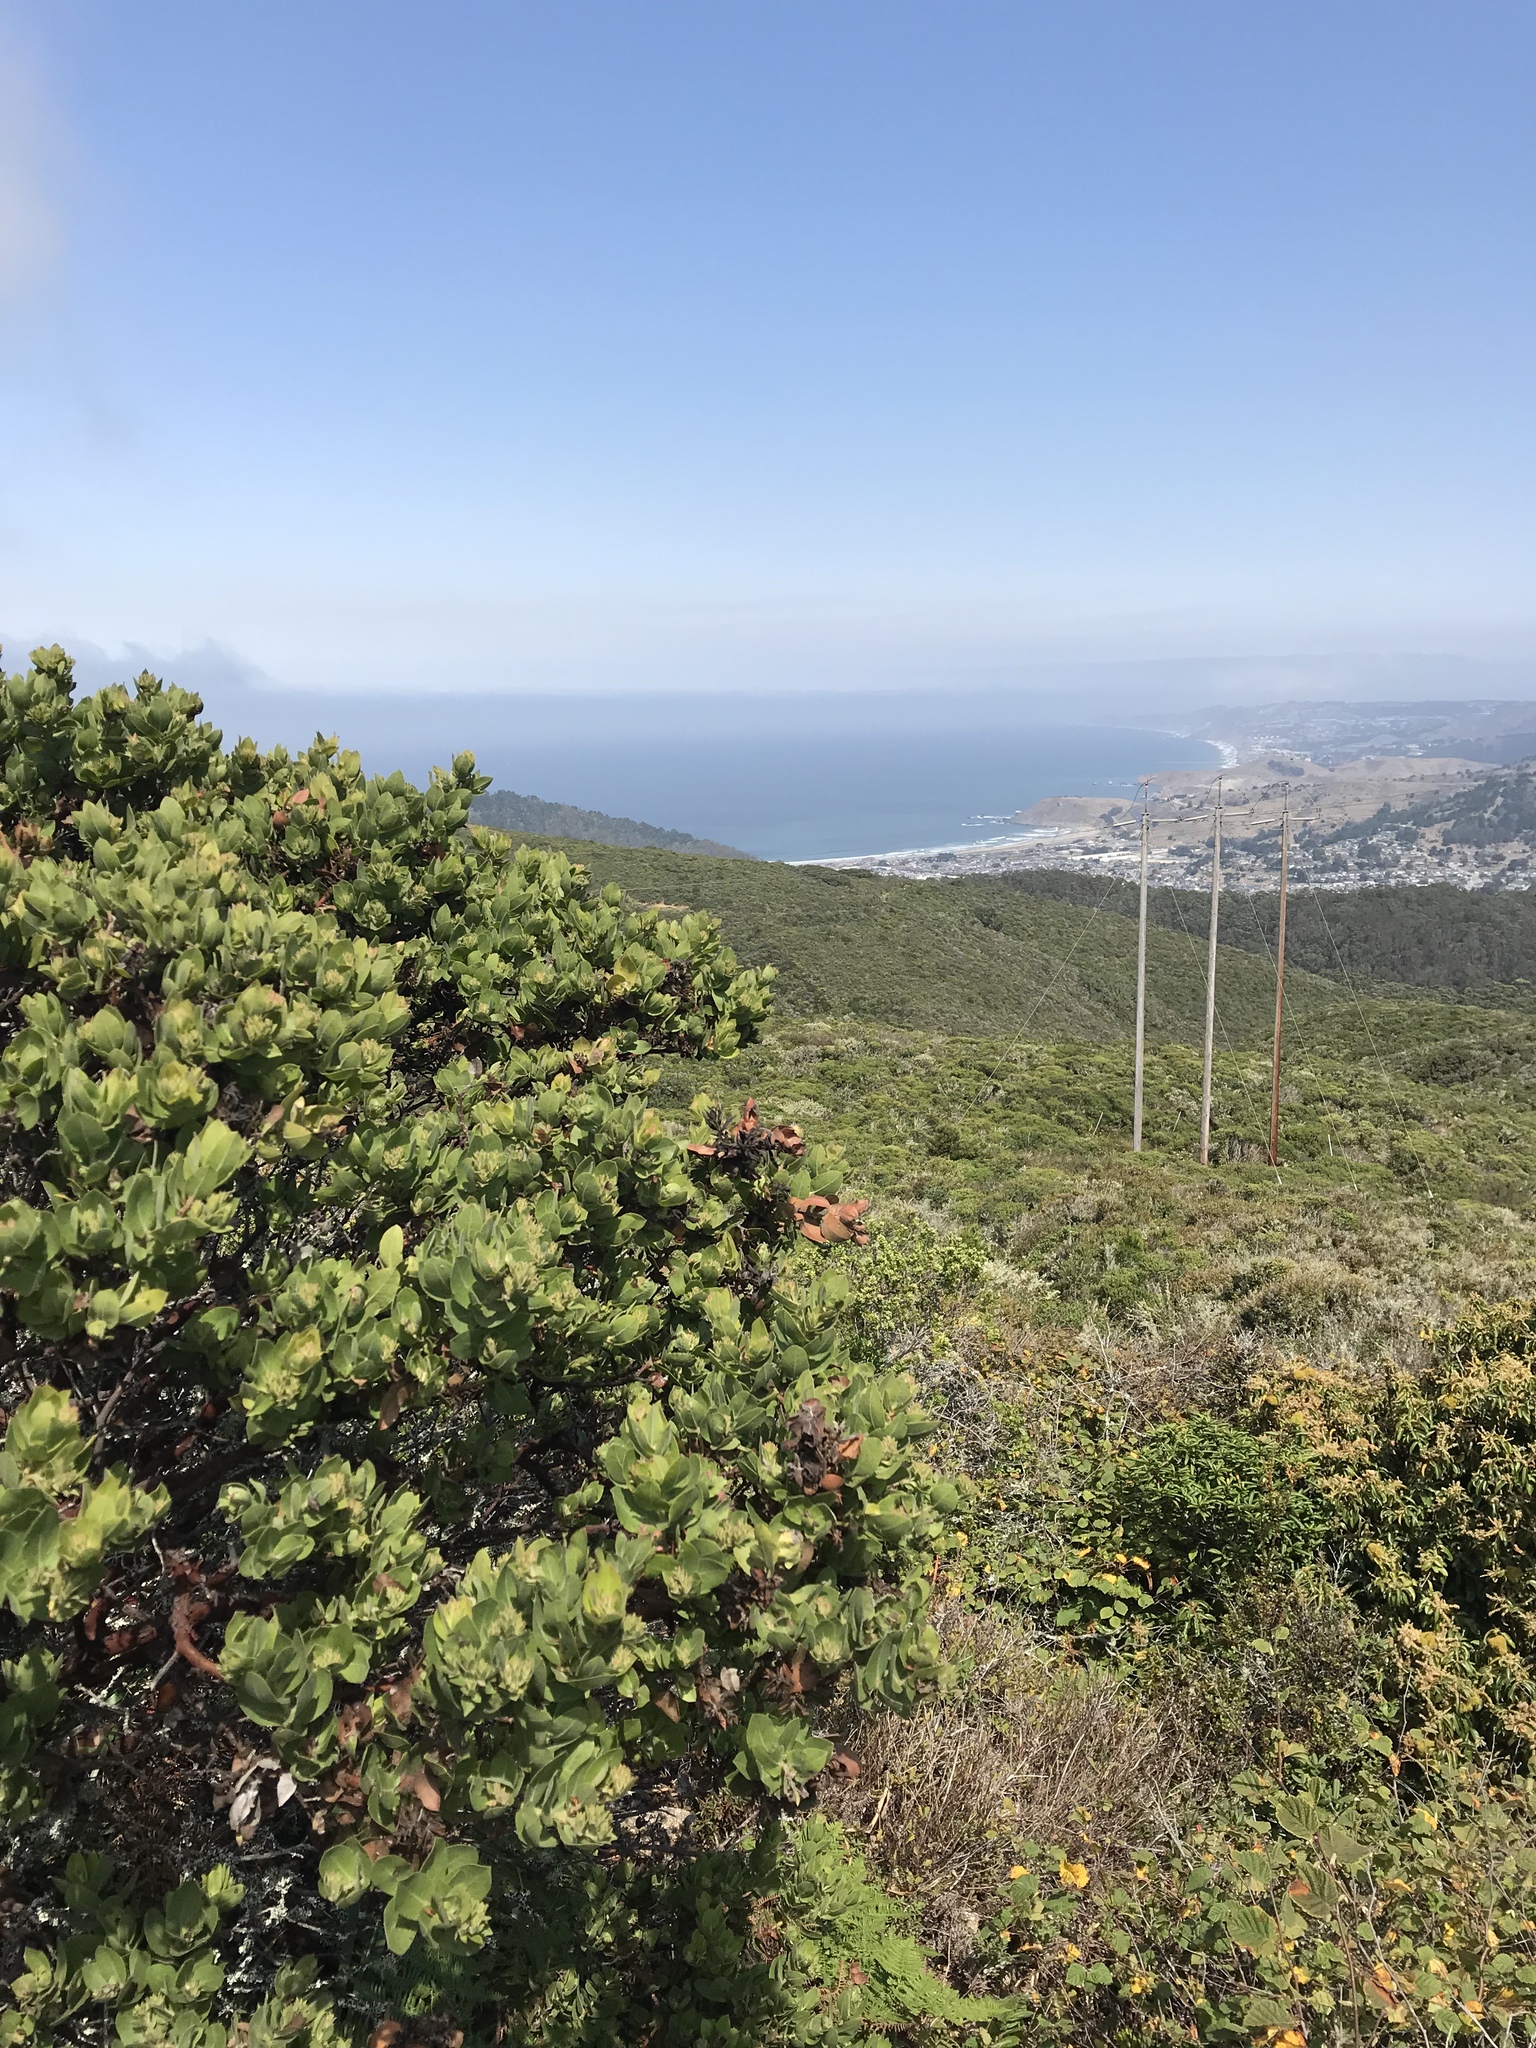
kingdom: Plantae
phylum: Tracheophyta
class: Magnoliopsida
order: Ericales
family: Ericaceae
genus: Arctostaphylos
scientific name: Arctostaphylos montaraensis
